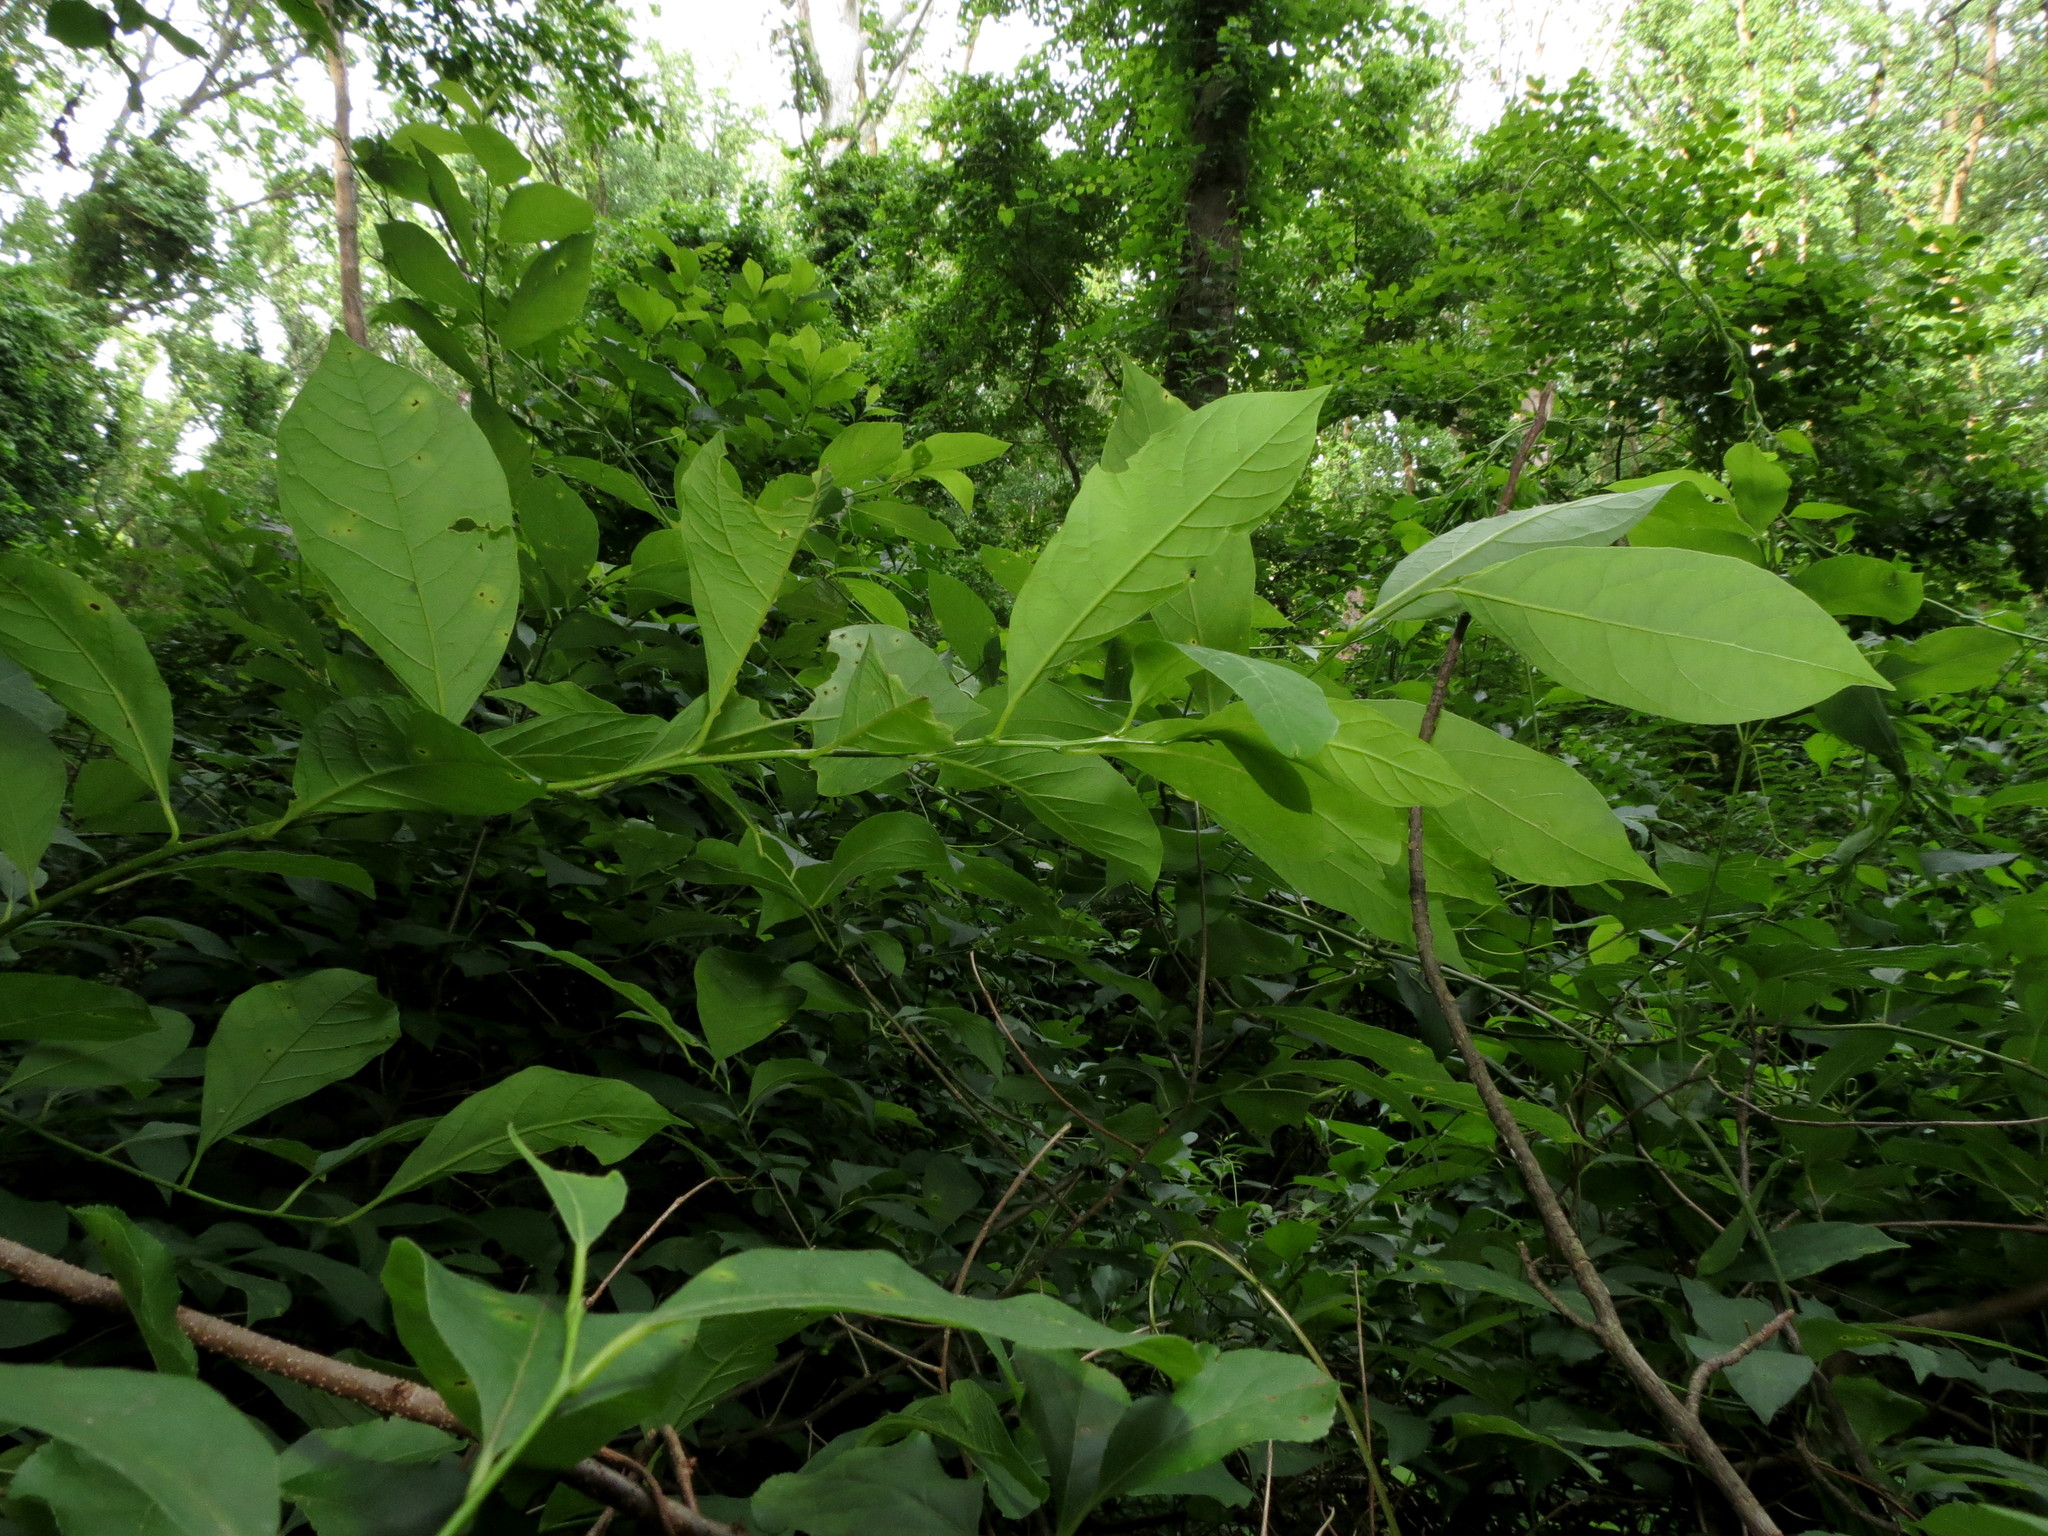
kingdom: Plantae
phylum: Tracheophyta
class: Magnoliopsida
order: Laurales
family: Lauraceae
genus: Lindera
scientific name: Lindera benzoin
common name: Spicebush
